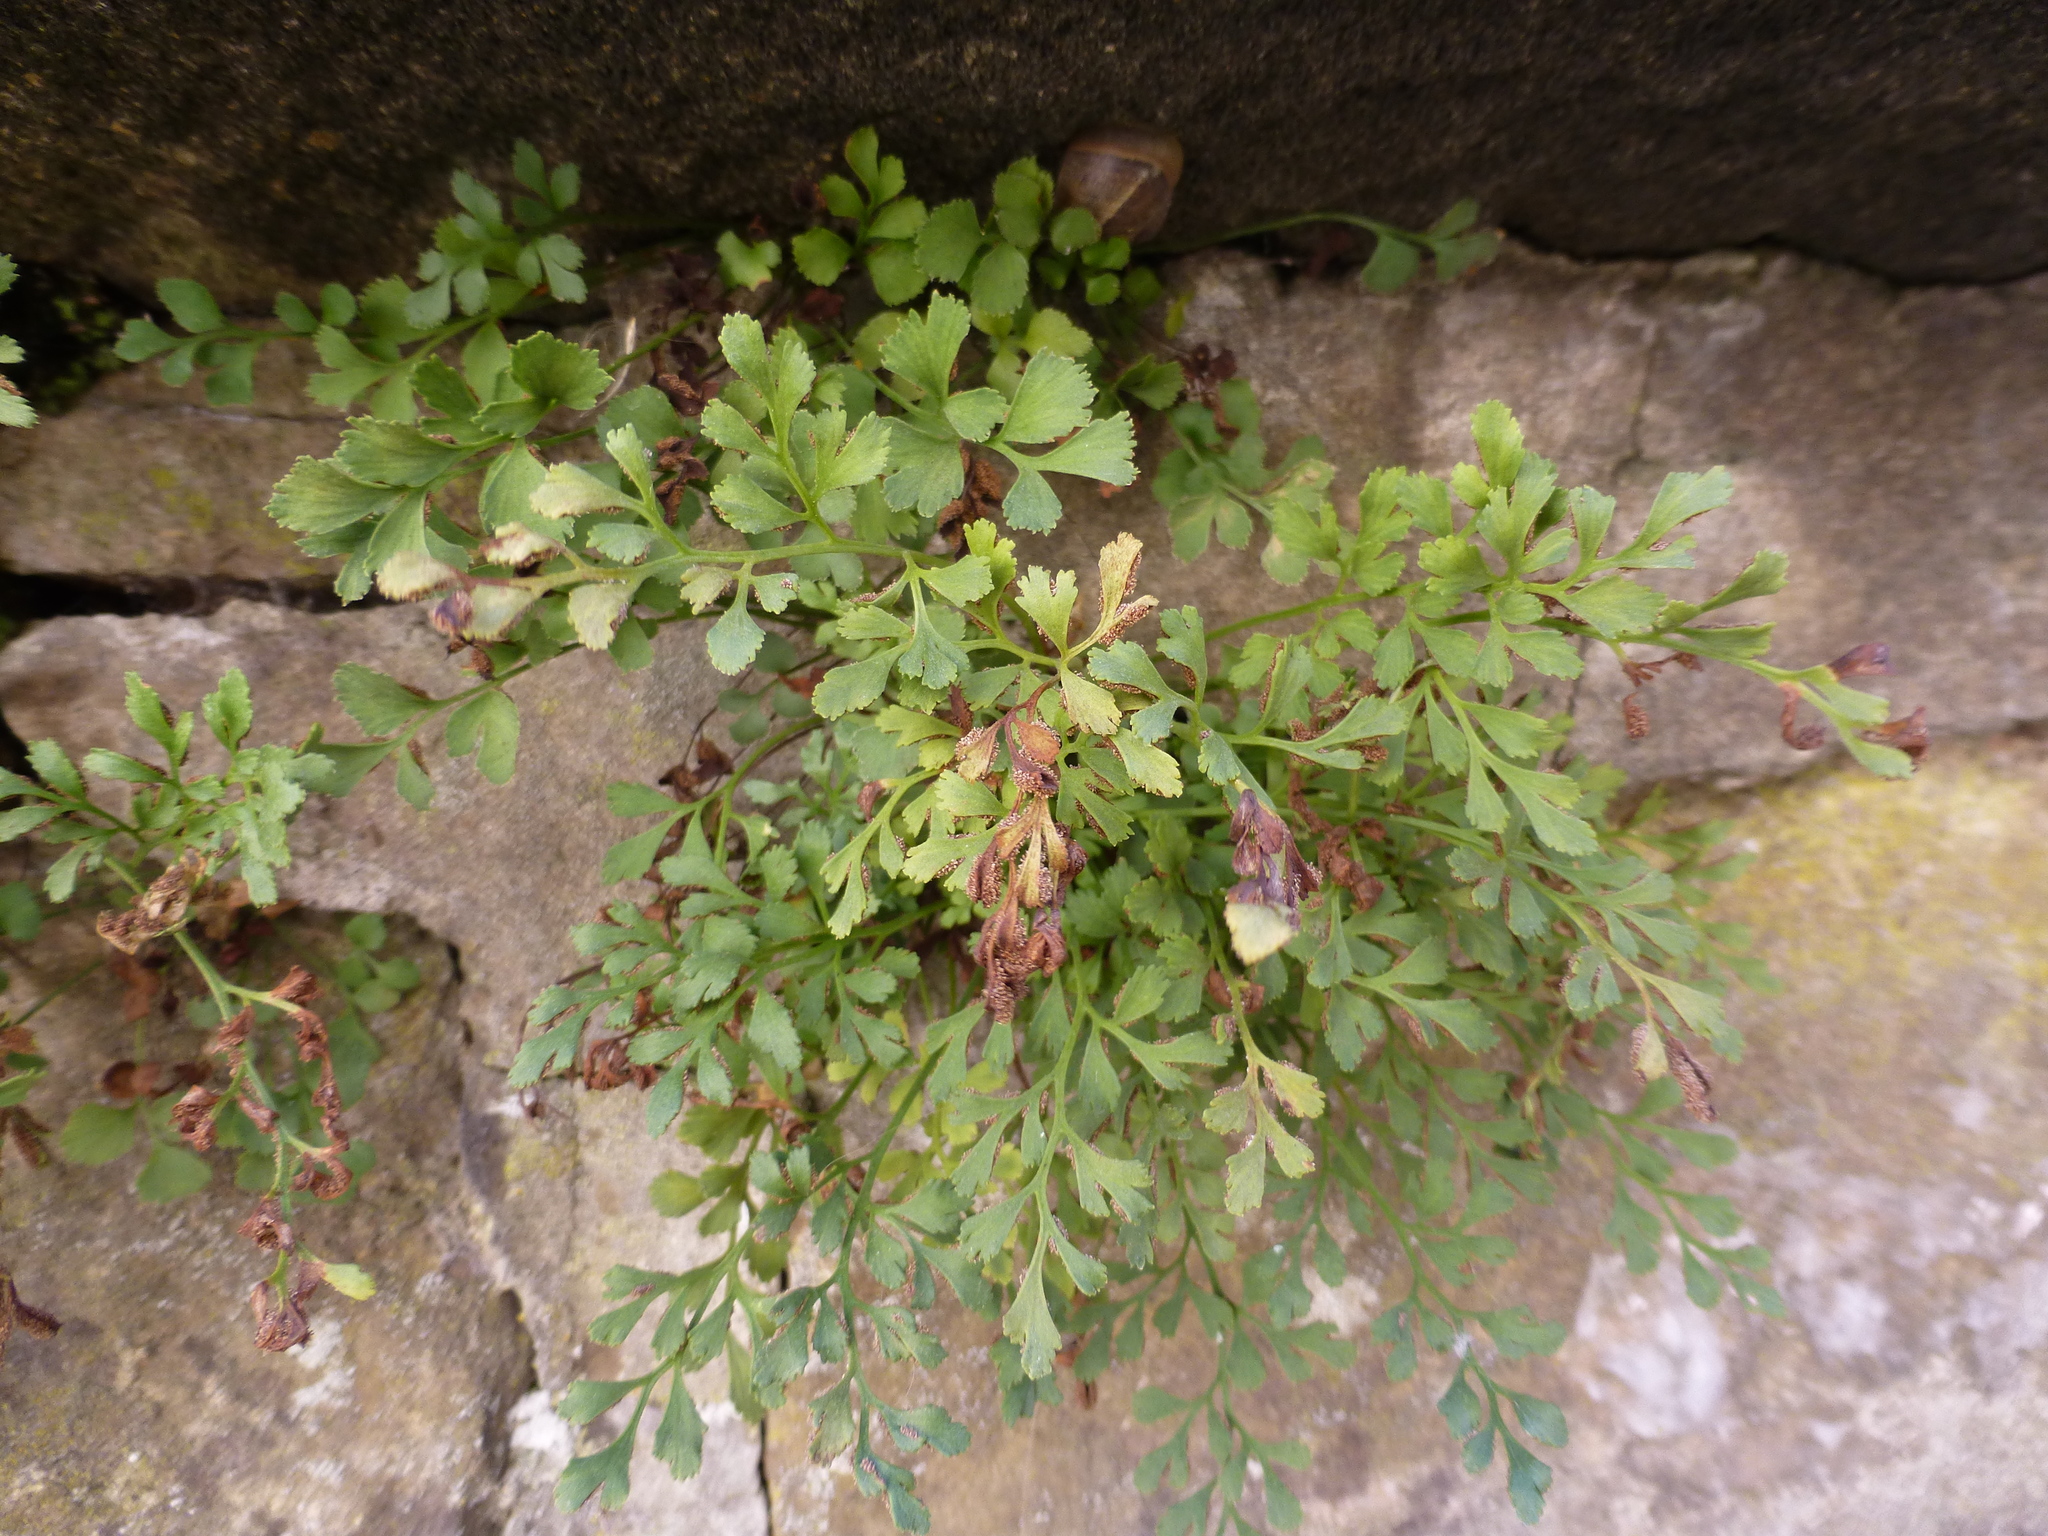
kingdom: Plantae
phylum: Tracheophyta
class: Polypodiopsida
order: Polypodiales
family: Aspleniaceae
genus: Asplenium
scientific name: Asplenium ruta-muraria
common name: Wall-rue
